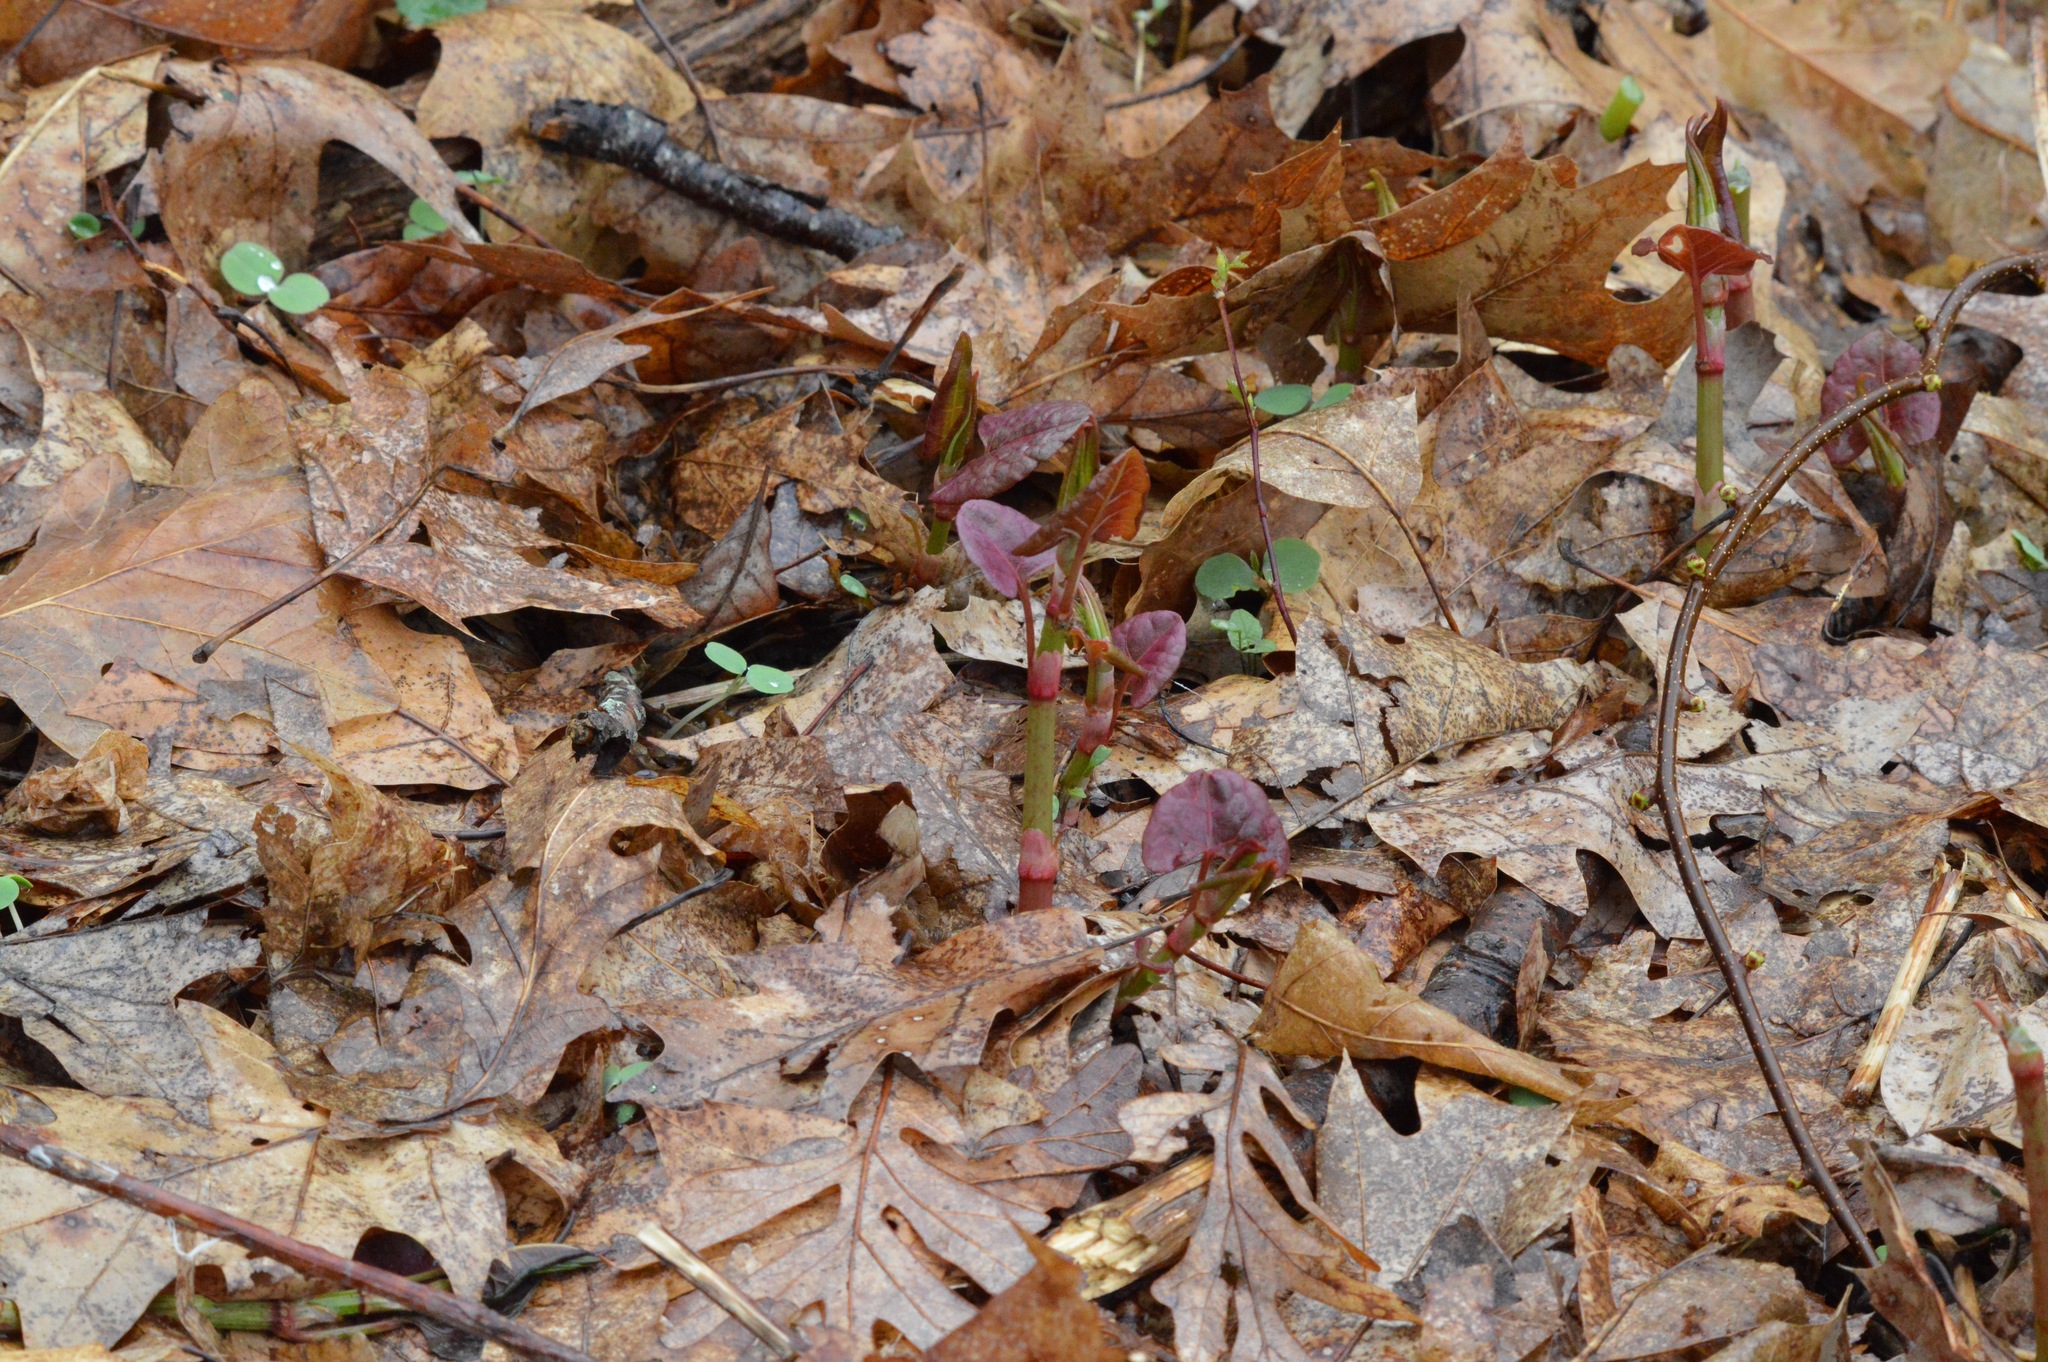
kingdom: Plantae
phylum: Tracheophyta
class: Magnoliopsida
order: Caryophyllales
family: Polygonaceae
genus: Reynoutria
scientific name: Reynoutria japonica
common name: Japanese knotweed
